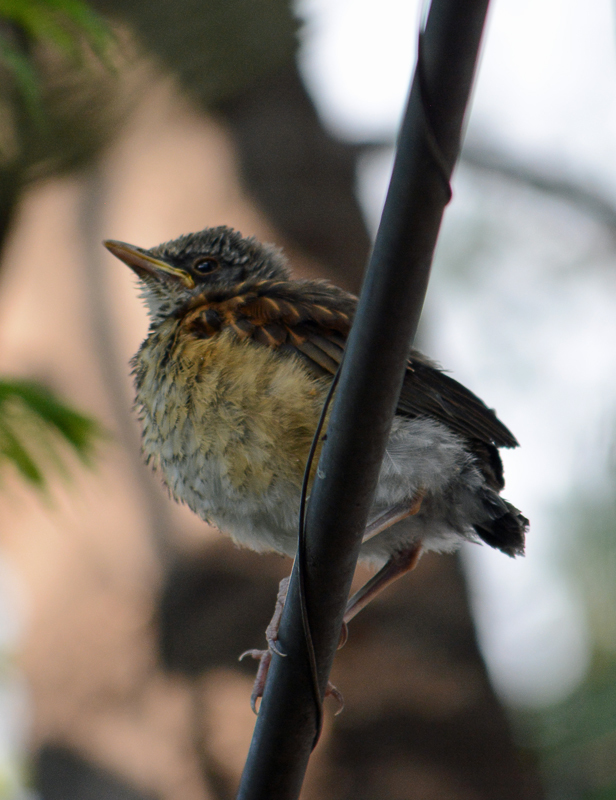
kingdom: Animalia
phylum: Chordata
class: Aves
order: Passeriformes
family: Turdidae
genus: Turdus
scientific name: Turdus rufopalliatus
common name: Rufous-backed robin
